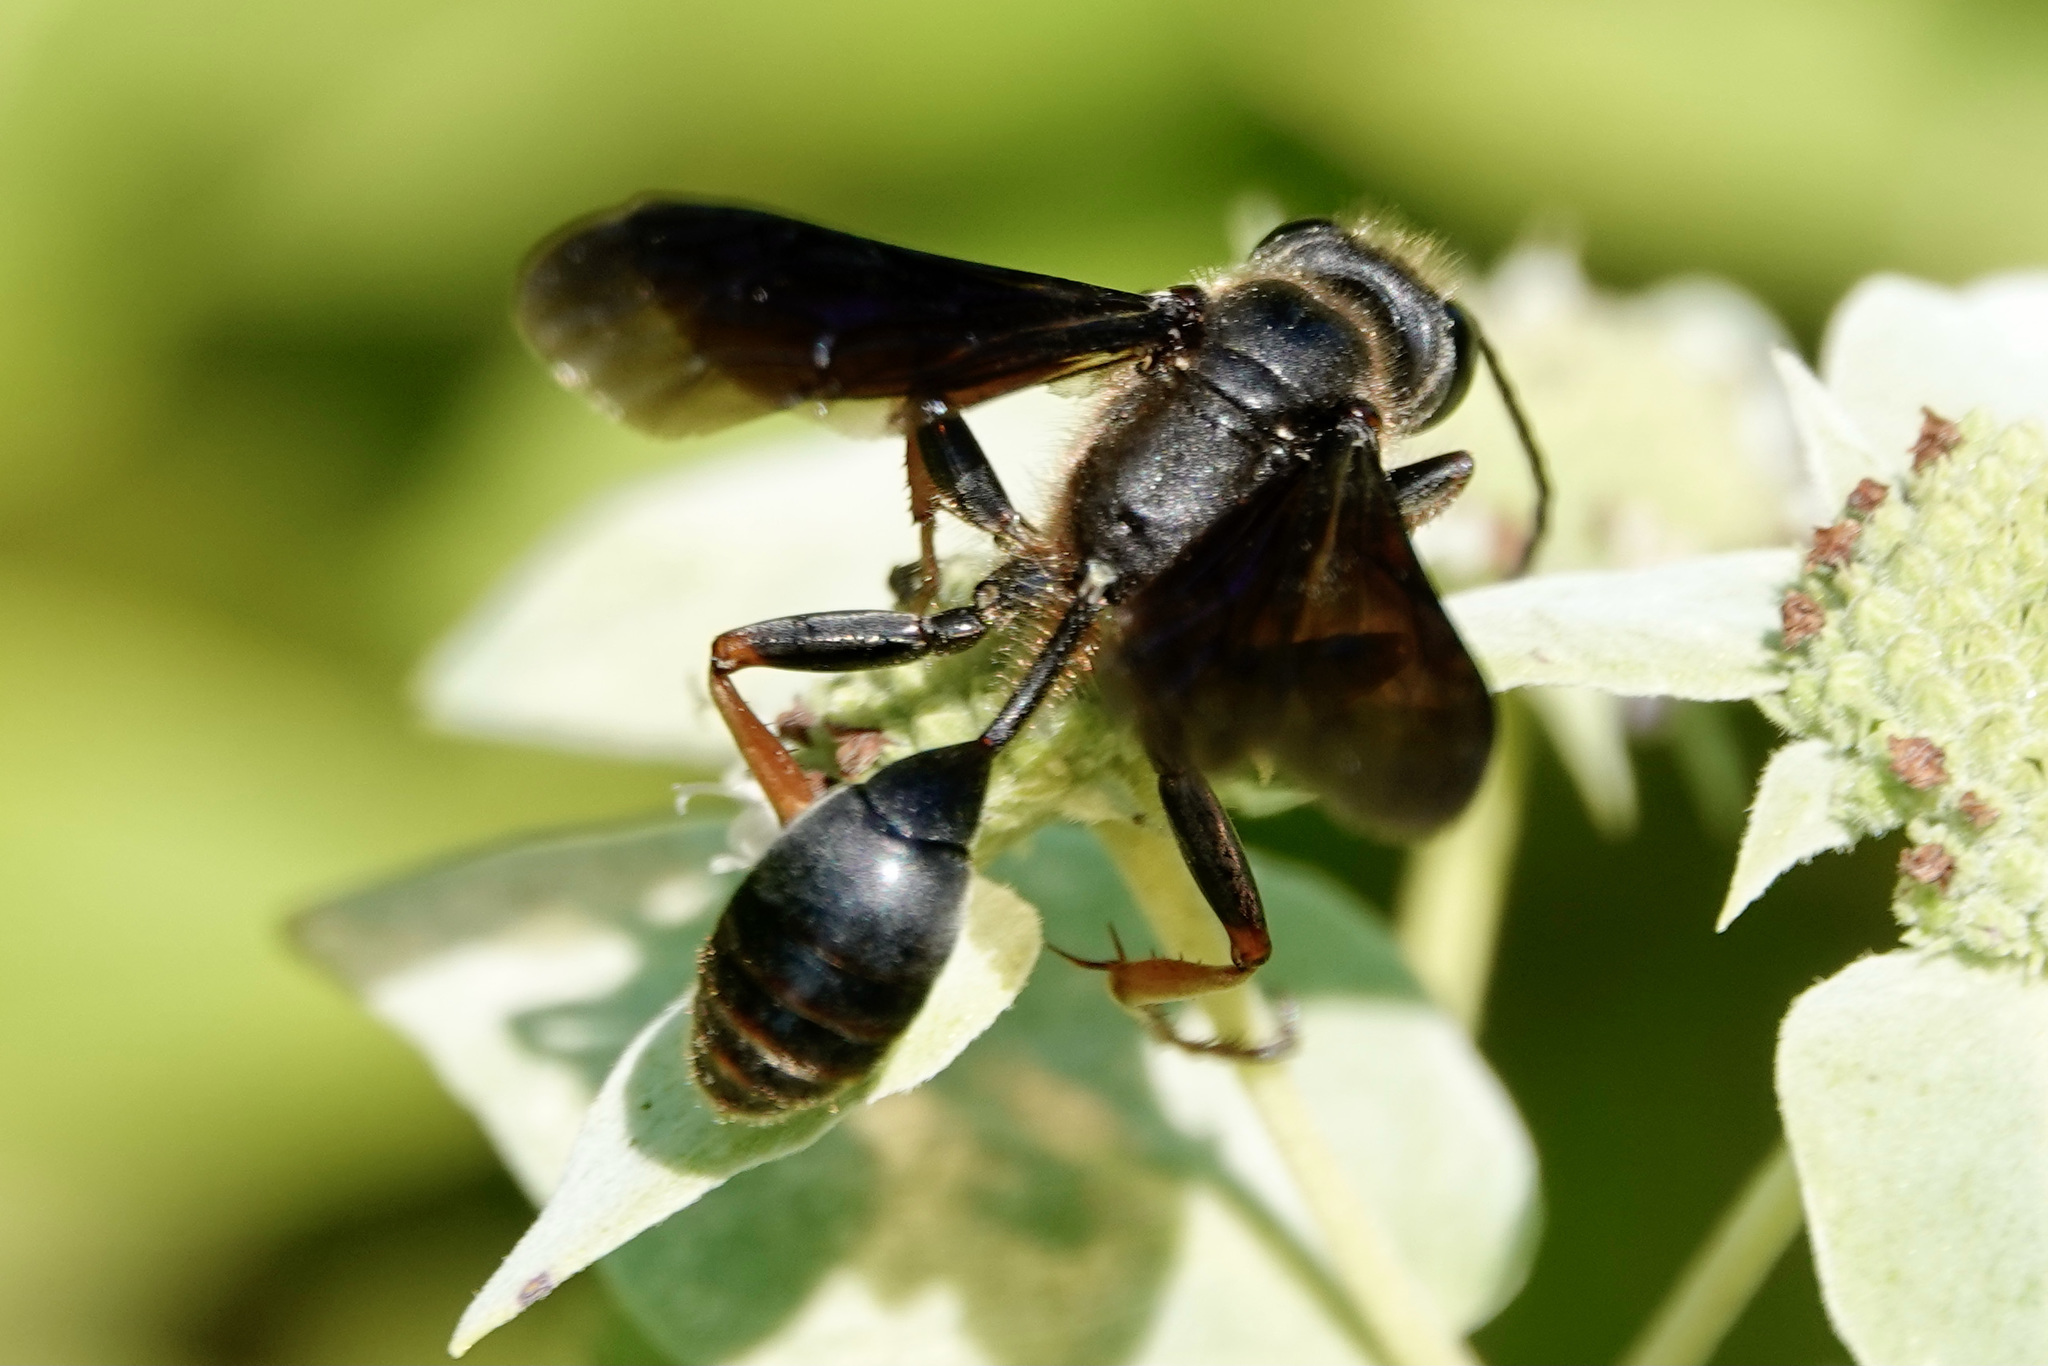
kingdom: Animalia
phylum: Arthropoda
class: Insecta
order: Hymenoptera
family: Sphecidae
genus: Isodontia
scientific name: Isodontia auripes
